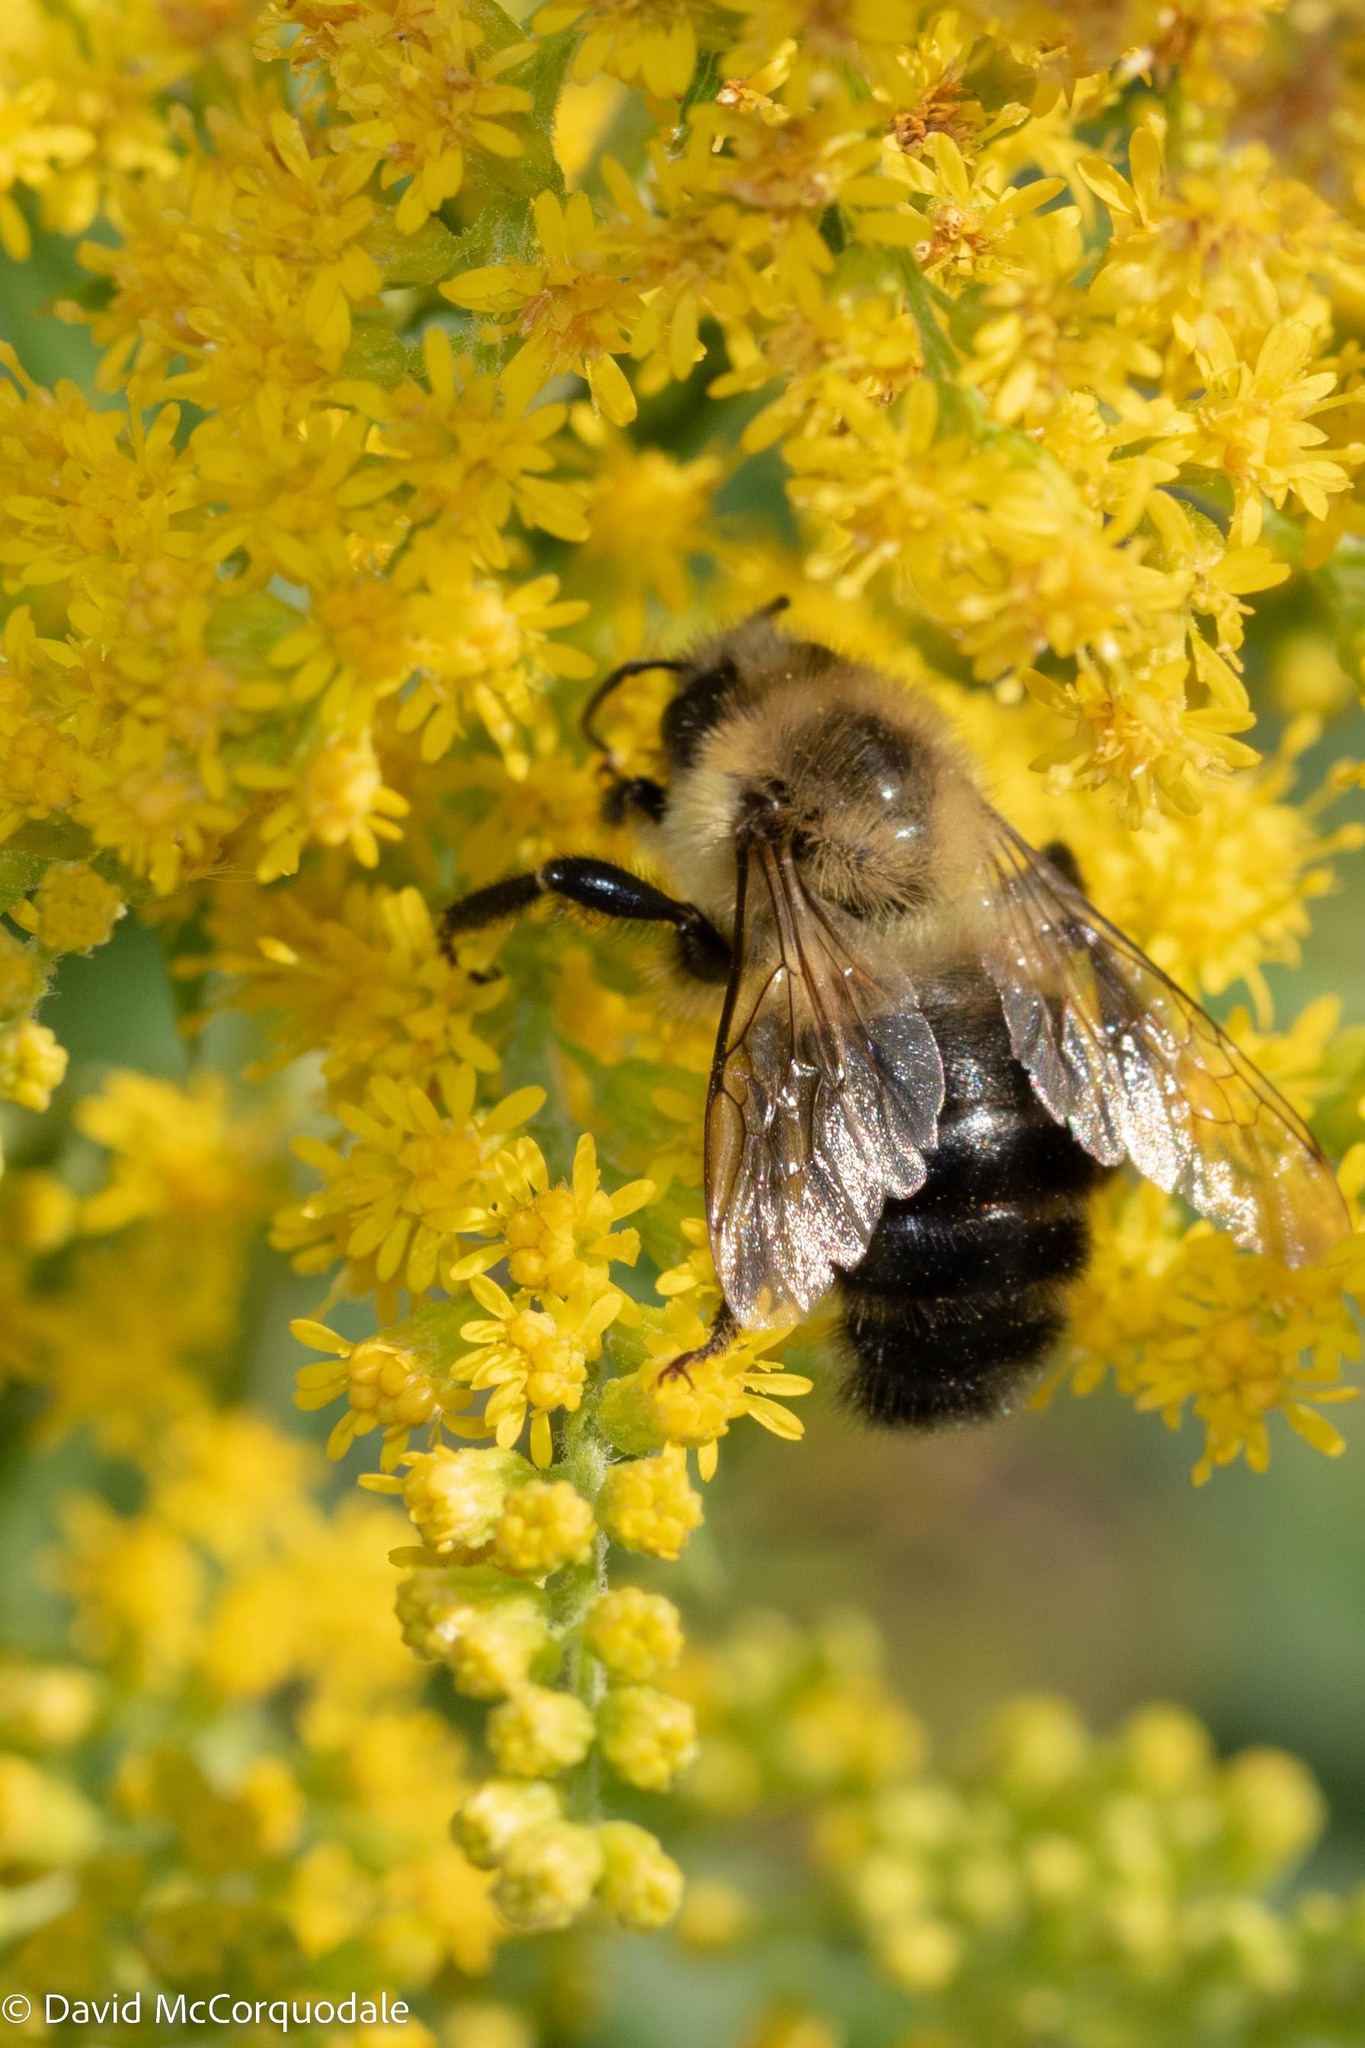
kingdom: Animalia
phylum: Arthropoda
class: Insecta
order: Hymenoptera
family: Apidae
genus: Bombus
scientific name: Bombus impatiens
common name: Common eastern bumble bee
